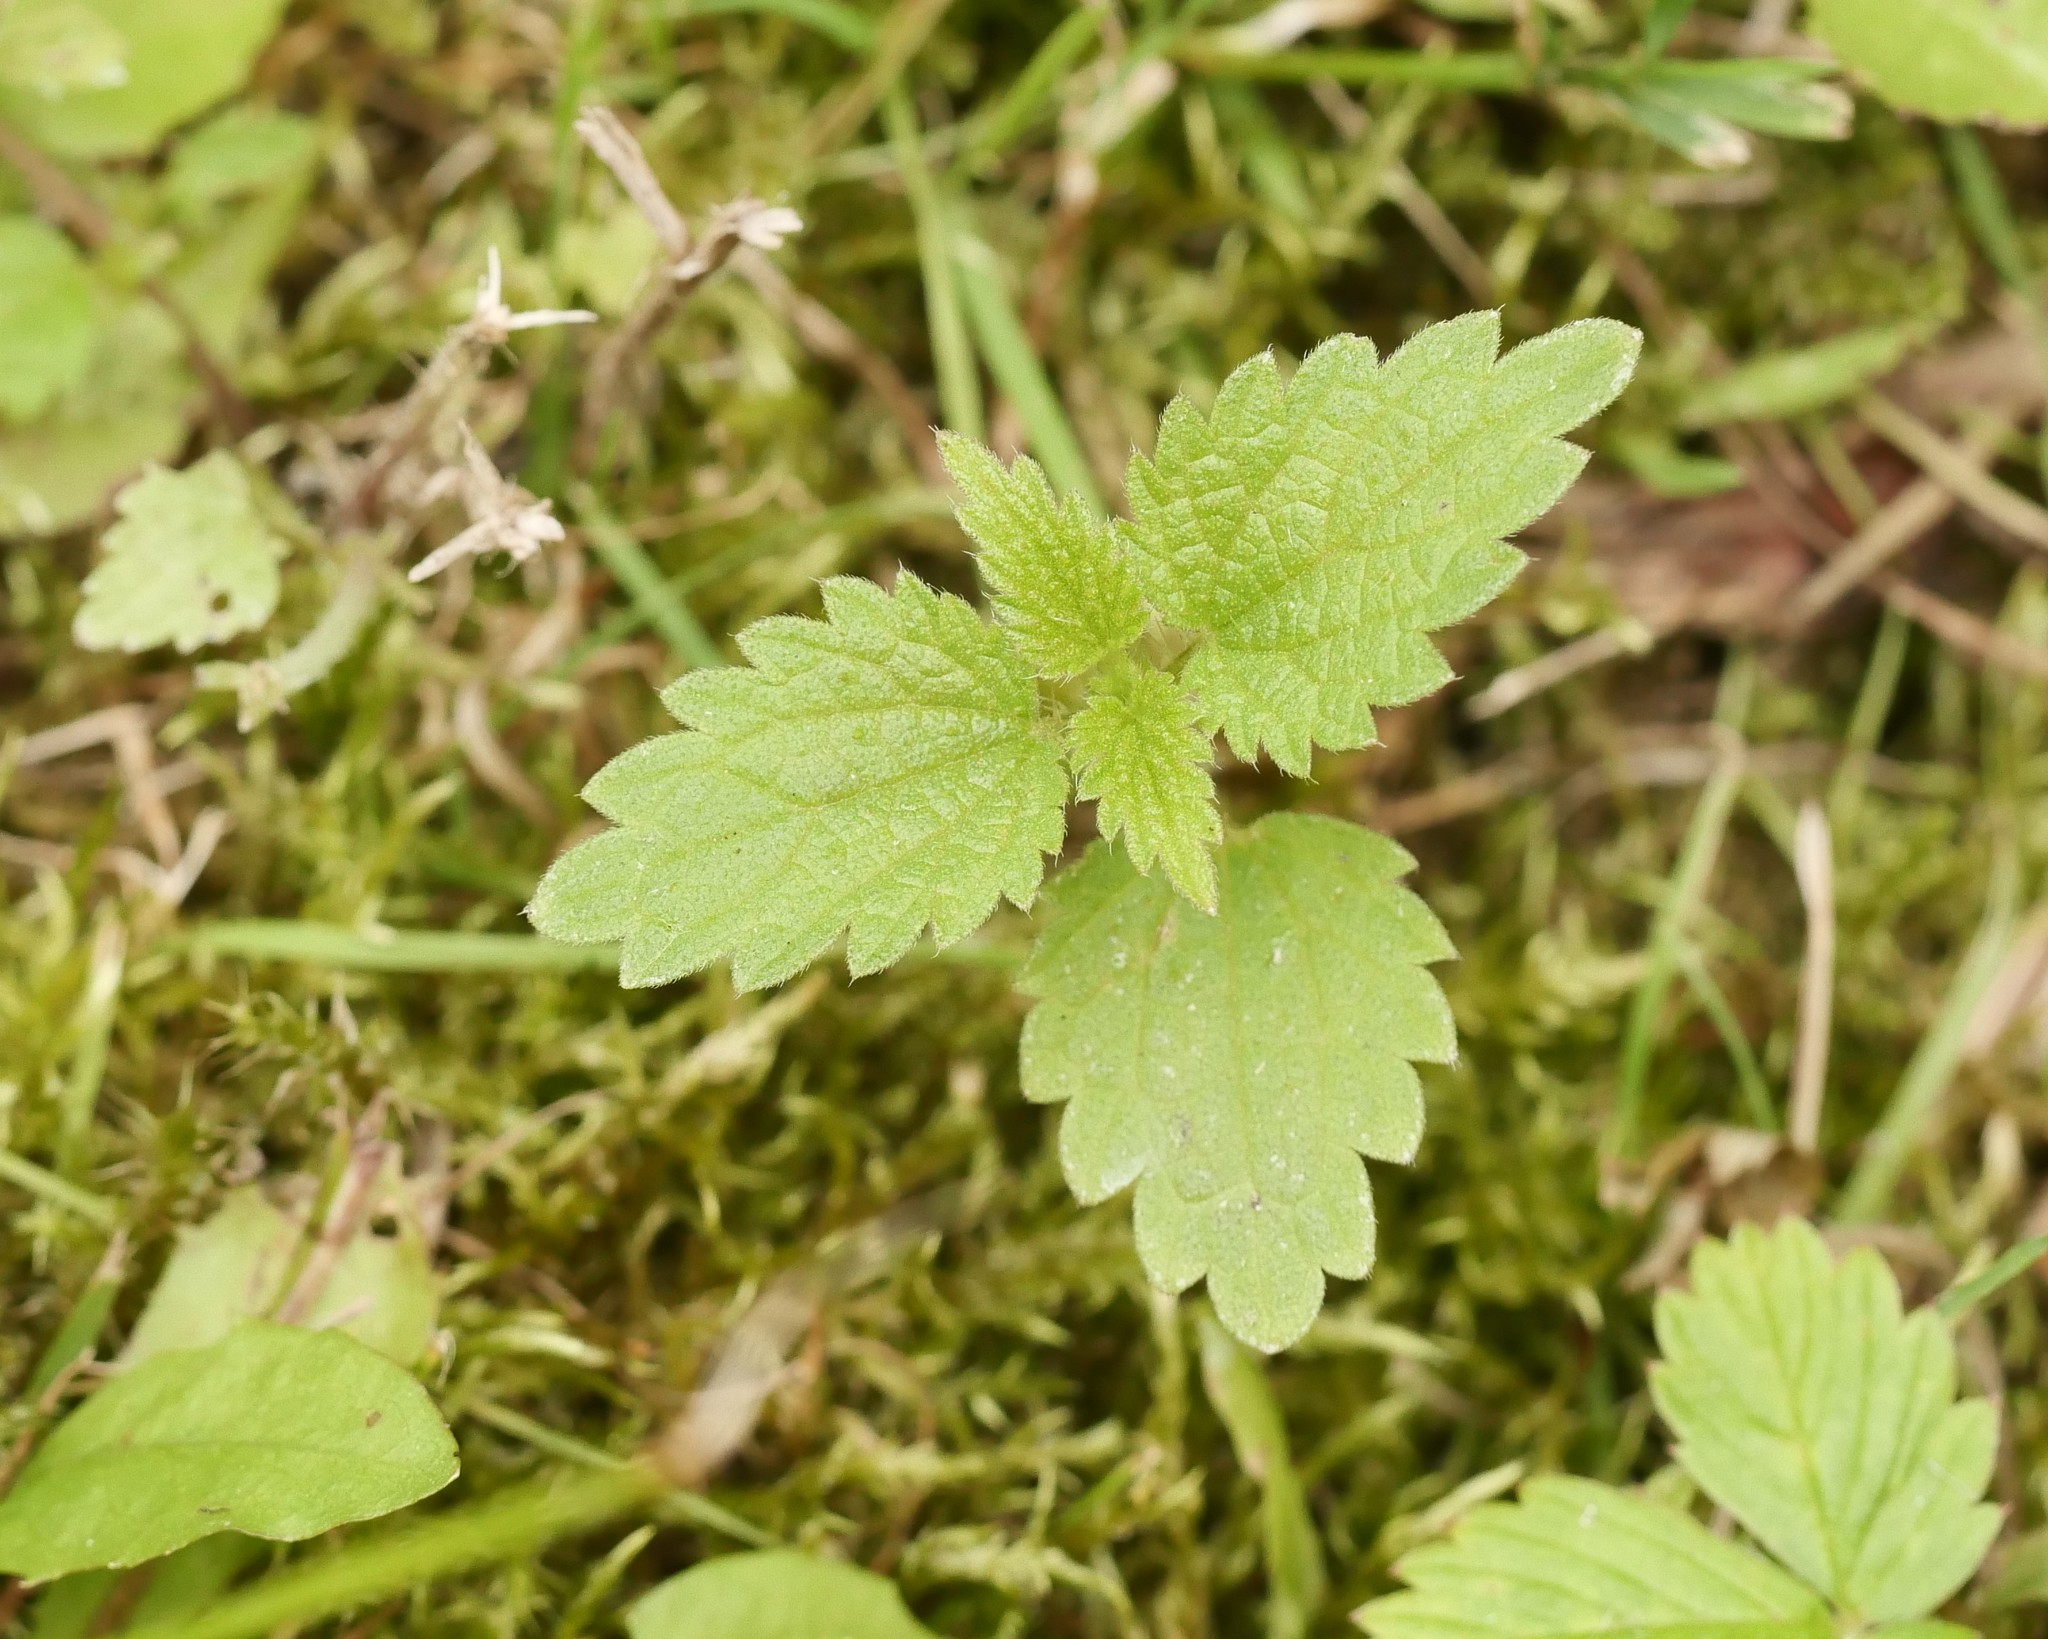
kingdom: Plantae
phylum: Tracheophyta
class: Magnoliopsida
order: Rosales
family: Urticaceae
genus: Urtica
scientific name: Urtica dioica
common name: Common nettle
